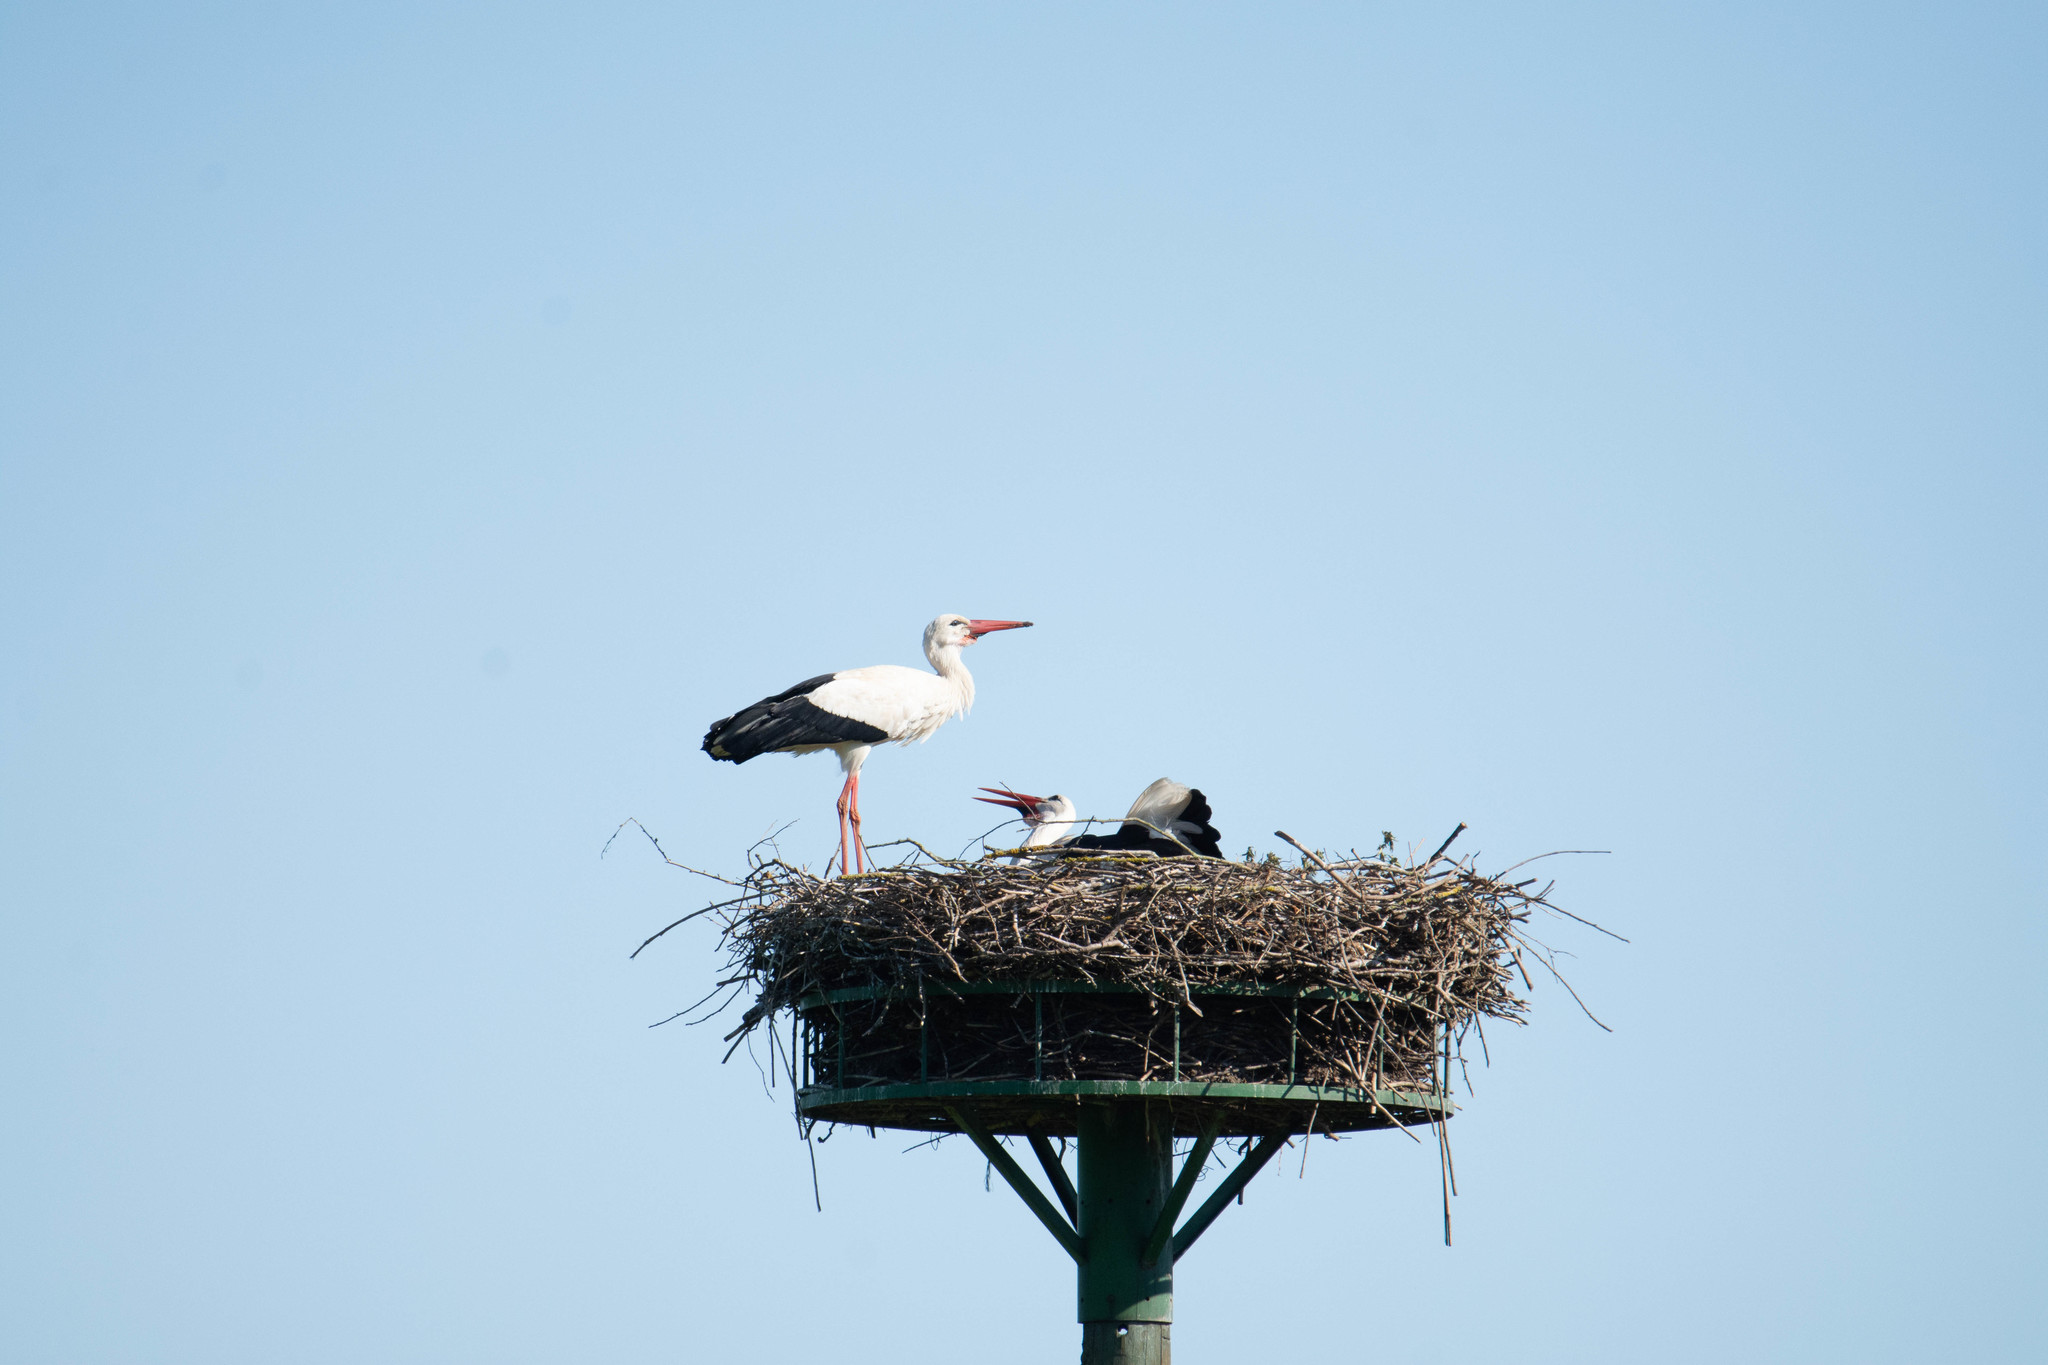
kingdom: Animalia
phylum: Chordata
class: Aves
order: Ciconiiformes
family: Ciconiidae
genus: Ciconia
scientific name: Ciconia ciconia
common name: White stork
